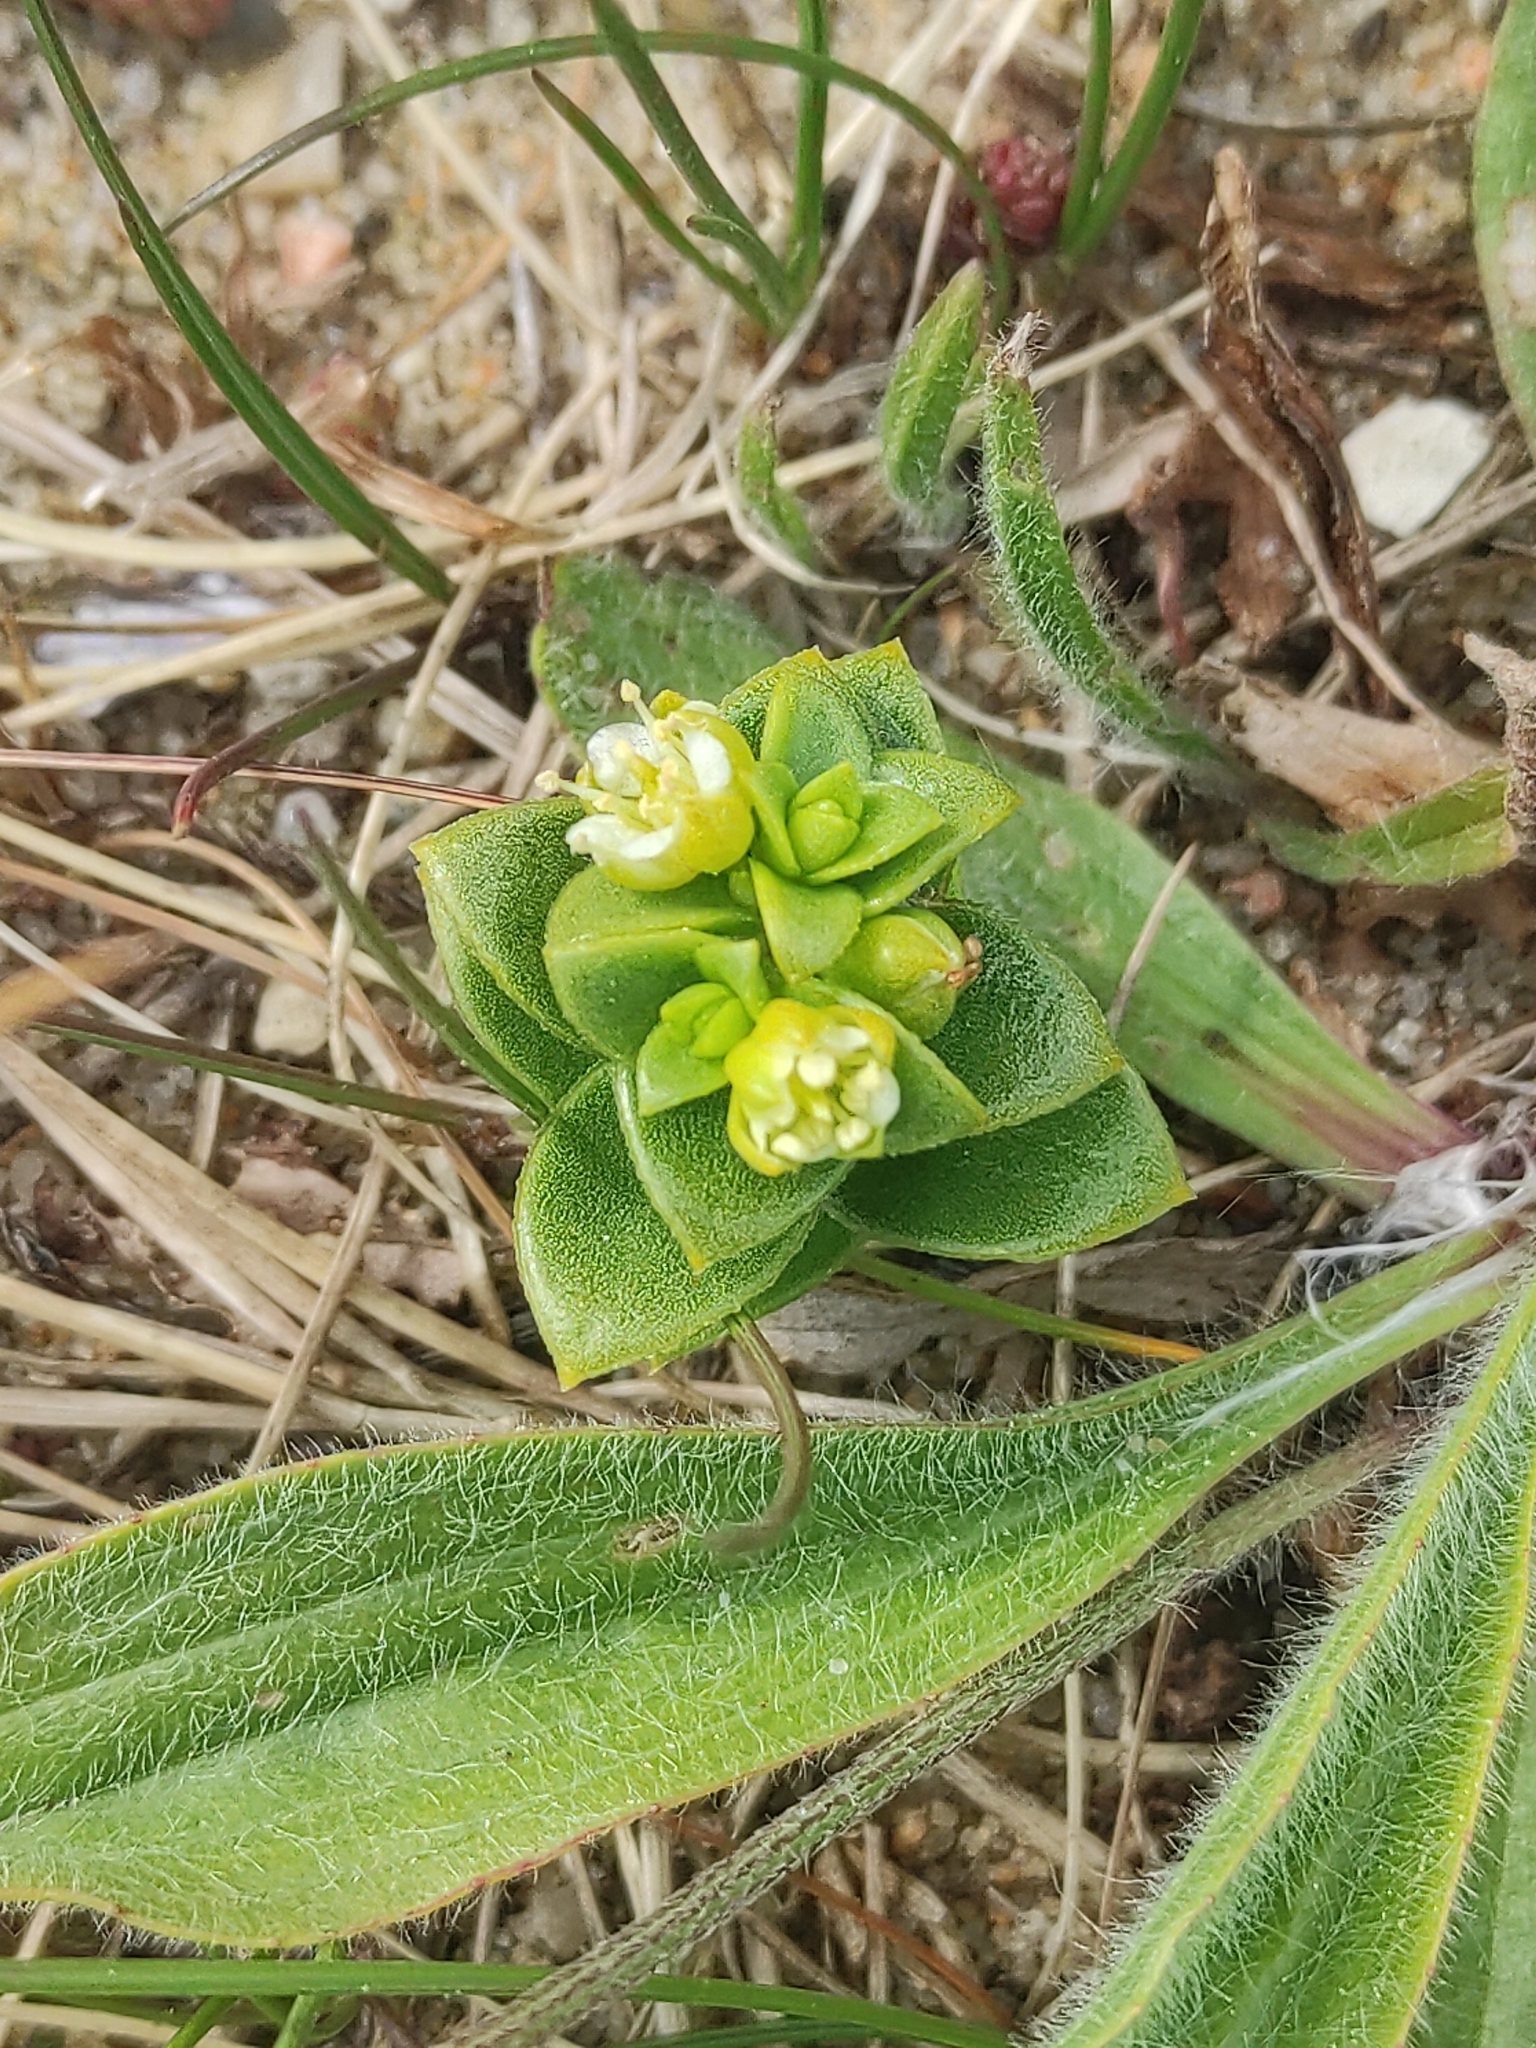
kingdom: Plantae
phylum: Tracheophyta
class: Magnoliopsida
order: Caryophyllales
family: Caryophyllaceae
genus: Honckenya
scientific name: Honckenya peploides
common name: Sea sandwort
